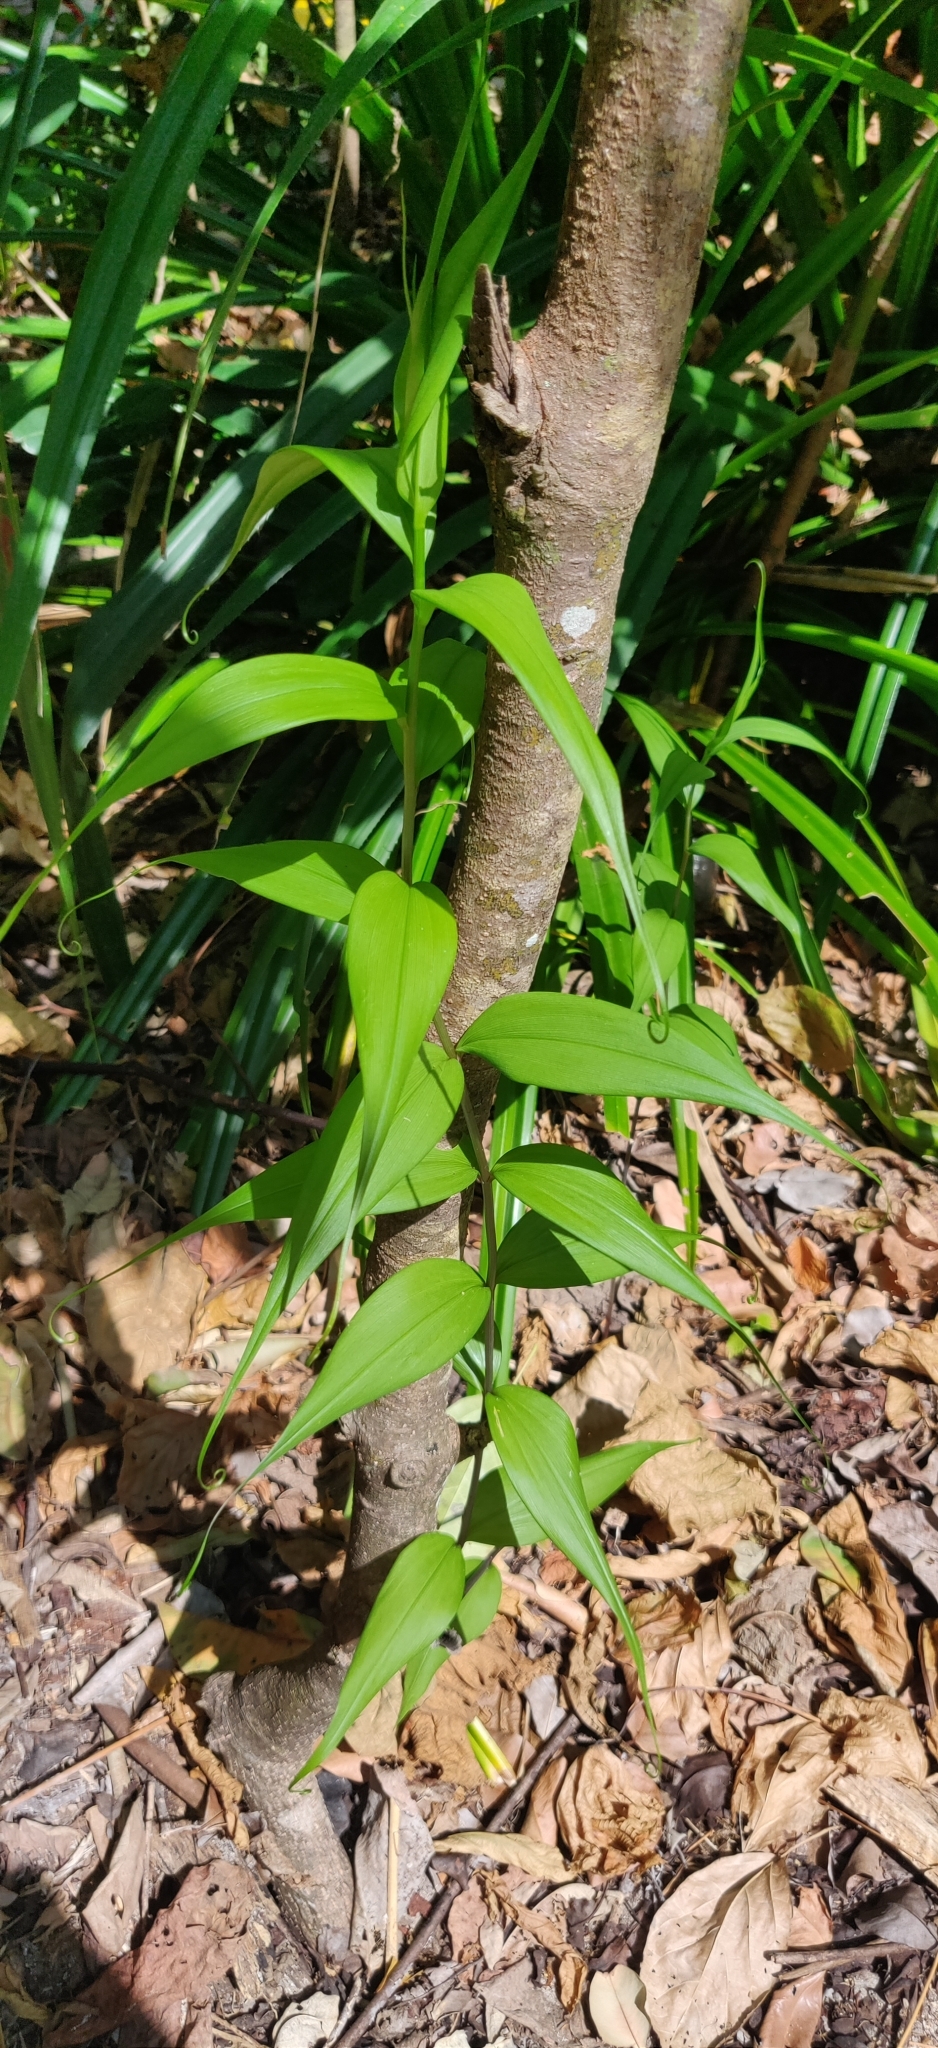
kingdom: Plantae
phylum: Tracheophyta
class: Liliopsida
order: Liliales
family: Colchicaceae
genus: Gloriosa
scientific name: Gloriosa superba
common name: Flame lily
